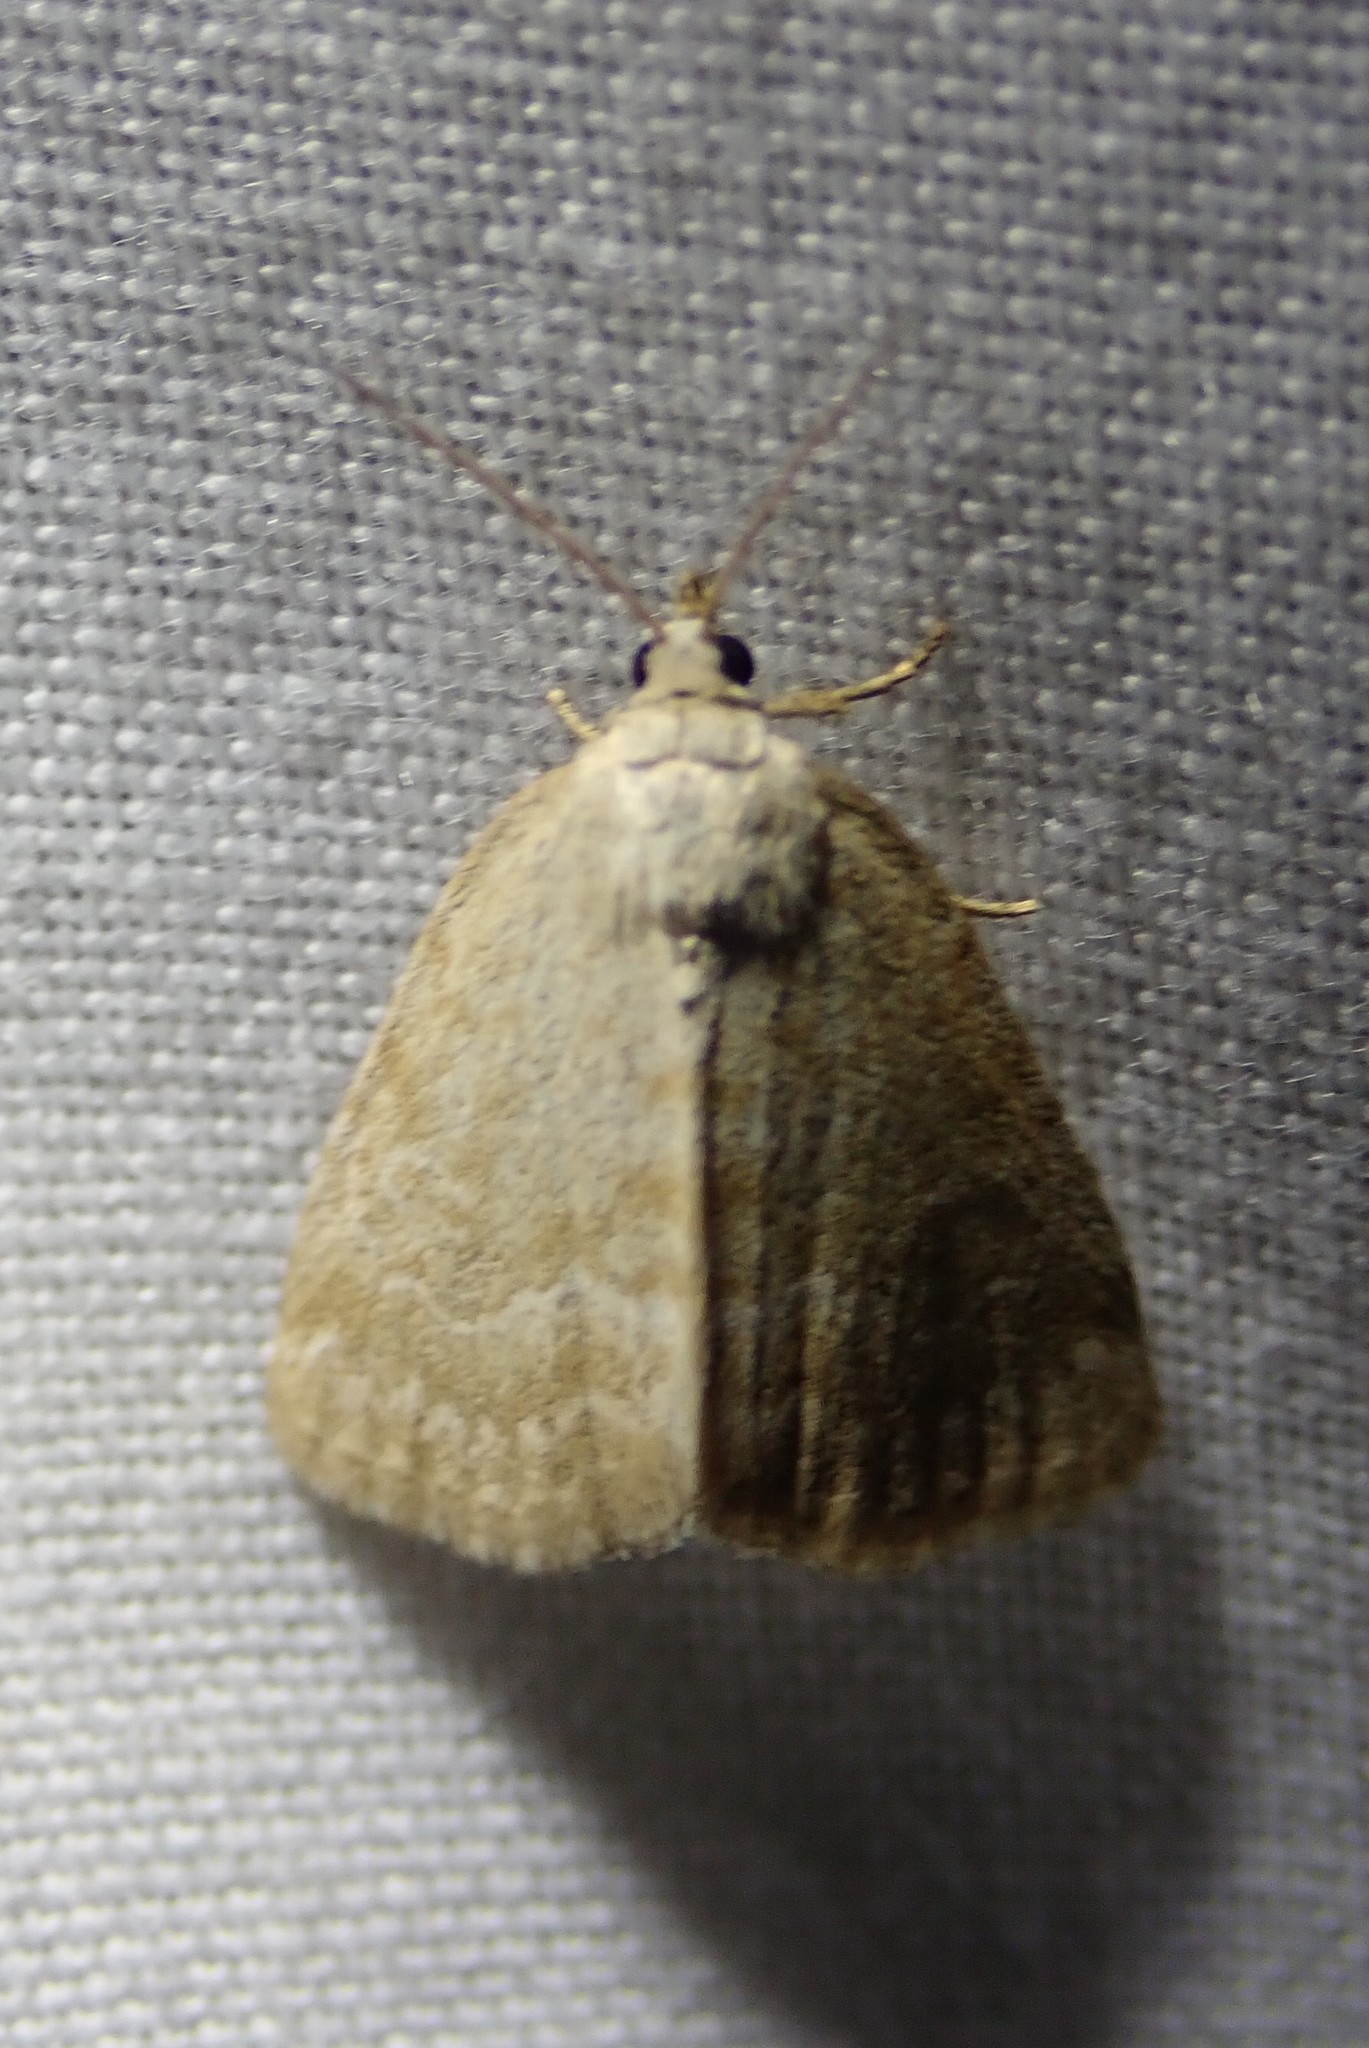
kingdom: Animalia
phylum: Arthropoda
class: Insecta
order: Lepidoptera
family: Noctuidae
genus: Protodeltote
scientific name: Protodeltote albidula
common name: Pale glyph
